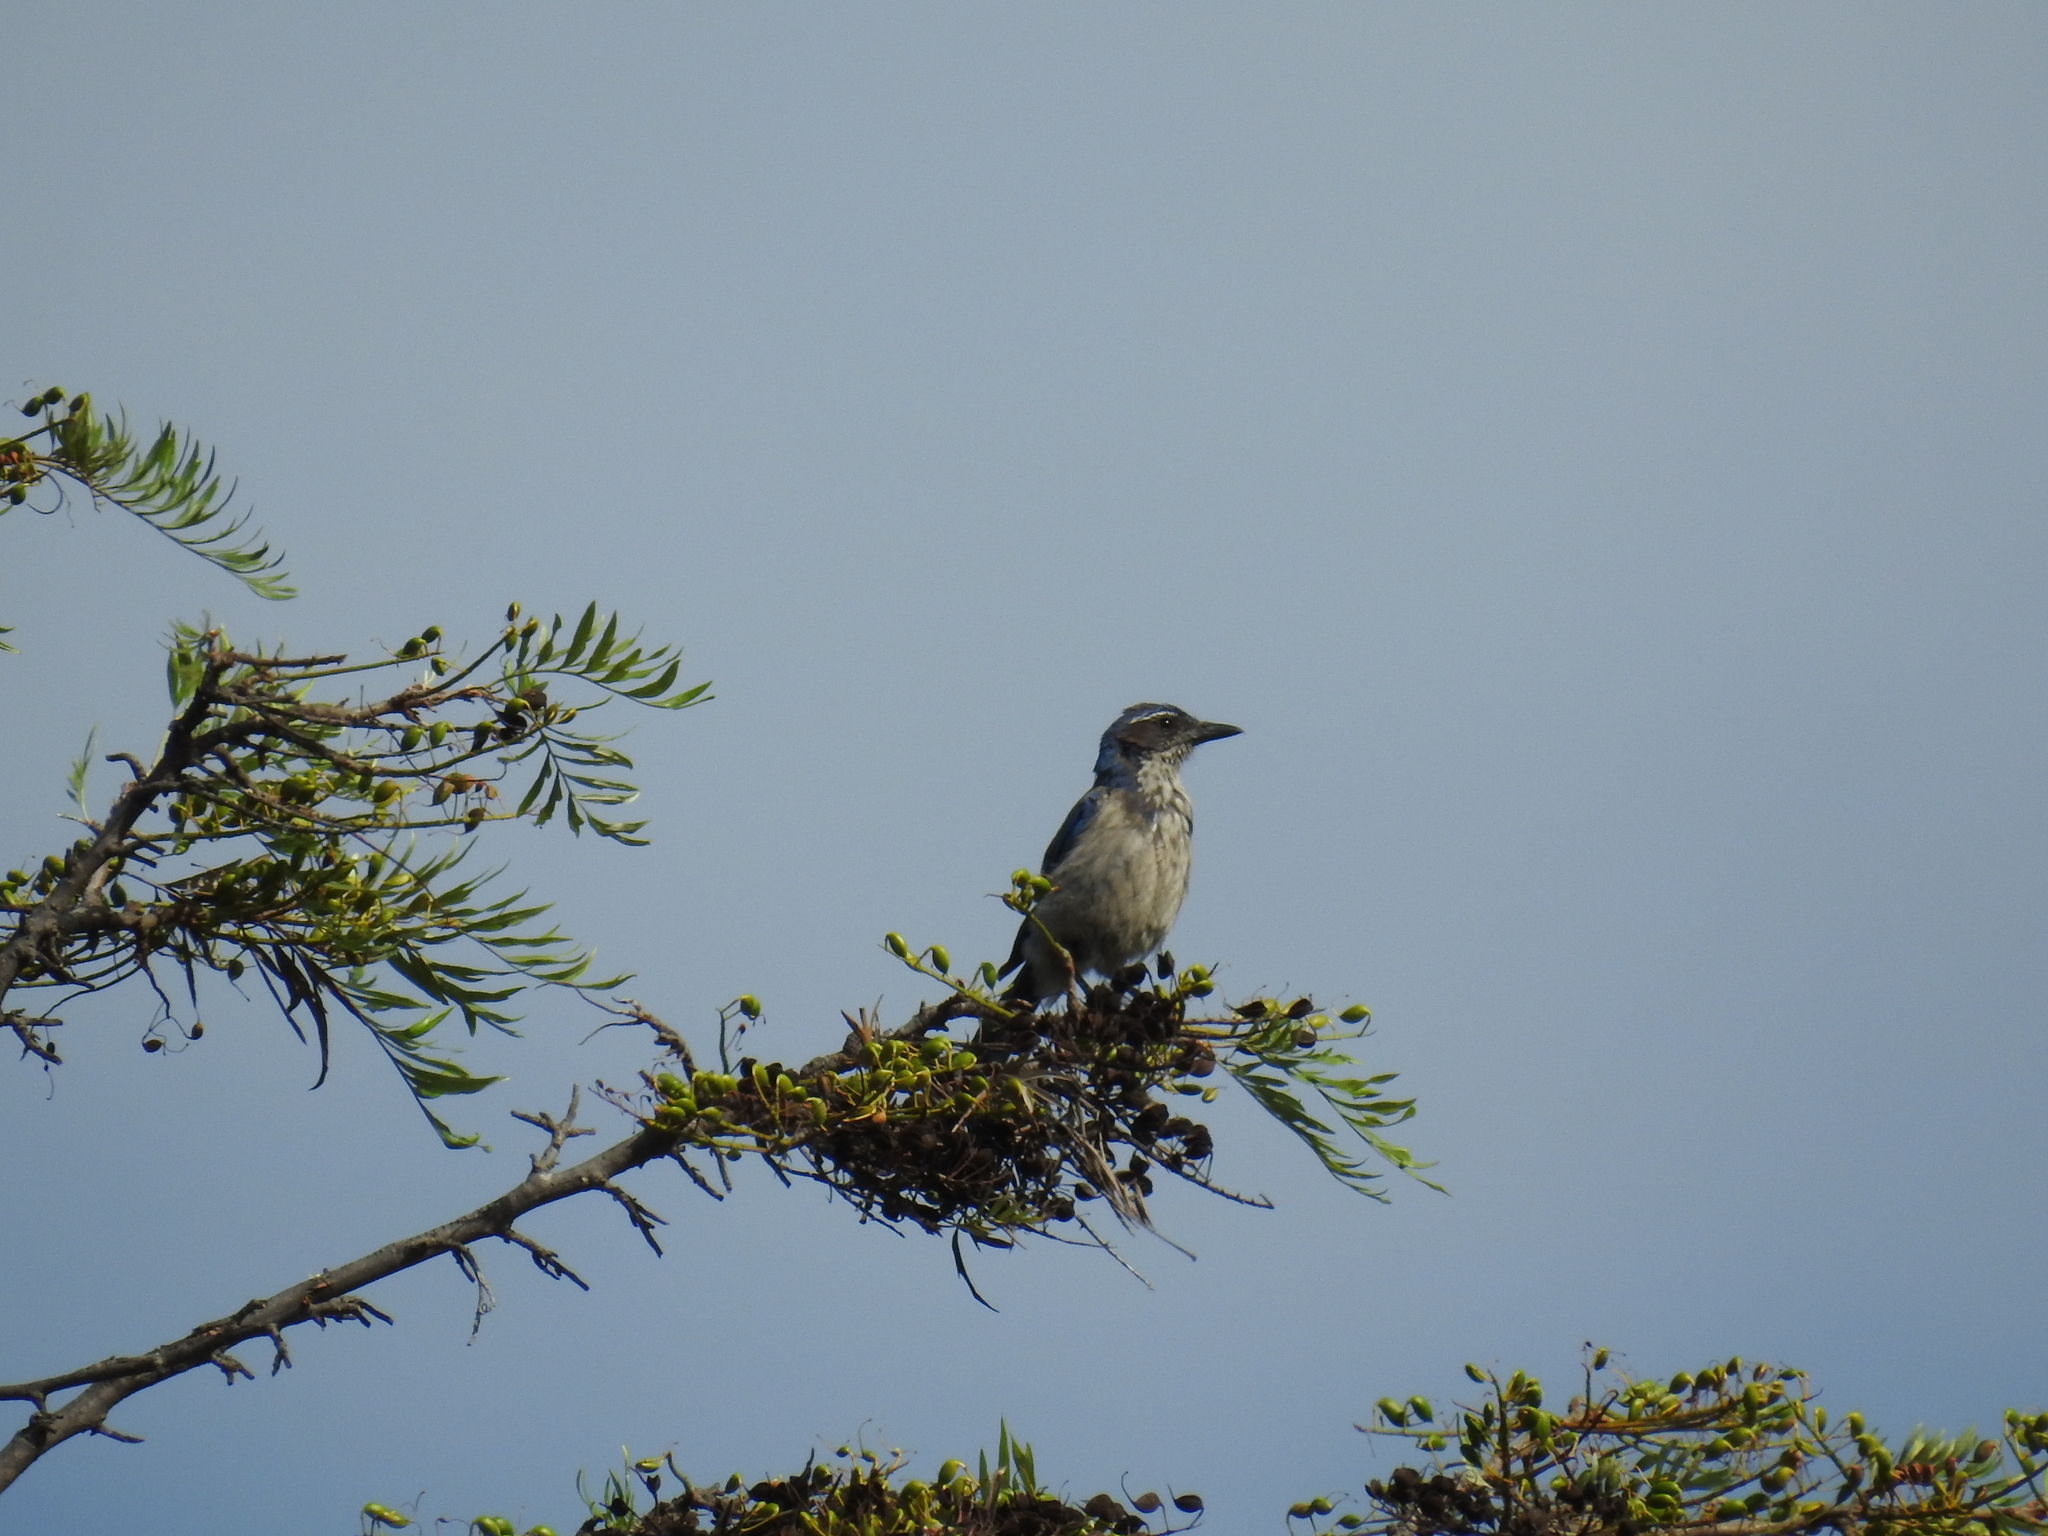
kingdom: Animalia
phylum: Chordata
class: Aves
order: Passeriformes
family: Corvidae
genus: Aphelocoma
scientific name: Aphelocoma californica
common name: California scrub-jay
